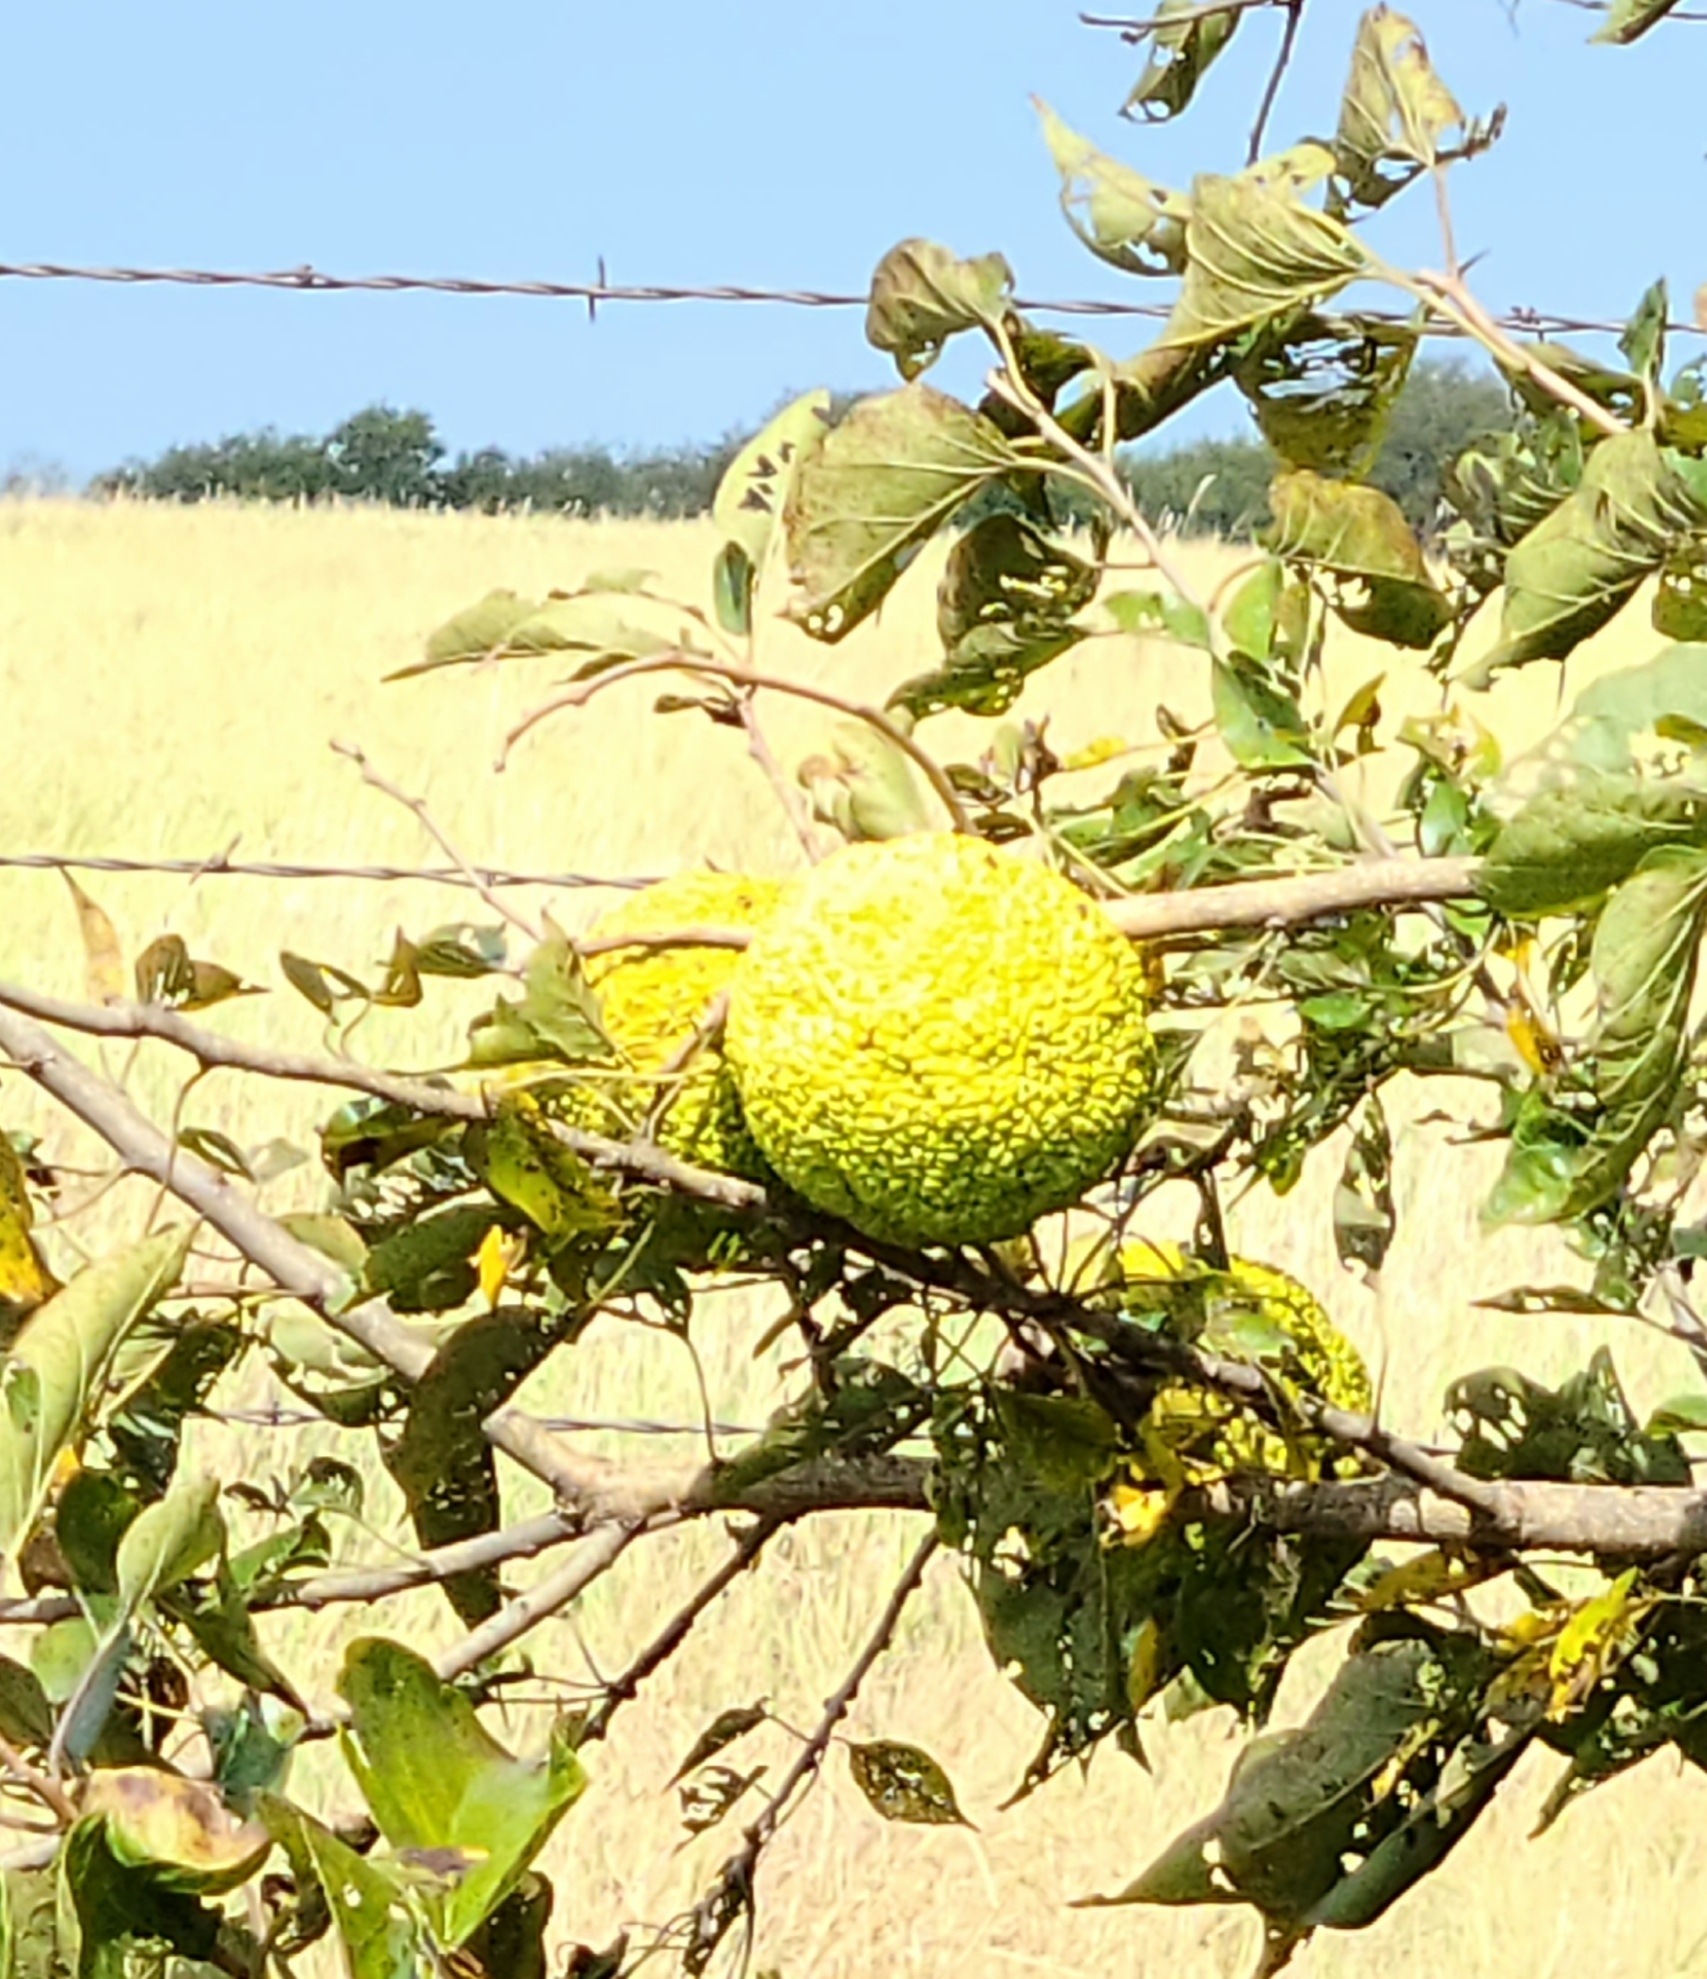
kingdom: Plantae
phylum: Tracheophyta
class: Magnoliopsida
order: Rosales
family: Moraceae
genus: Maclura
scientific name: Maclura pomifera
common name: Osage-orange
